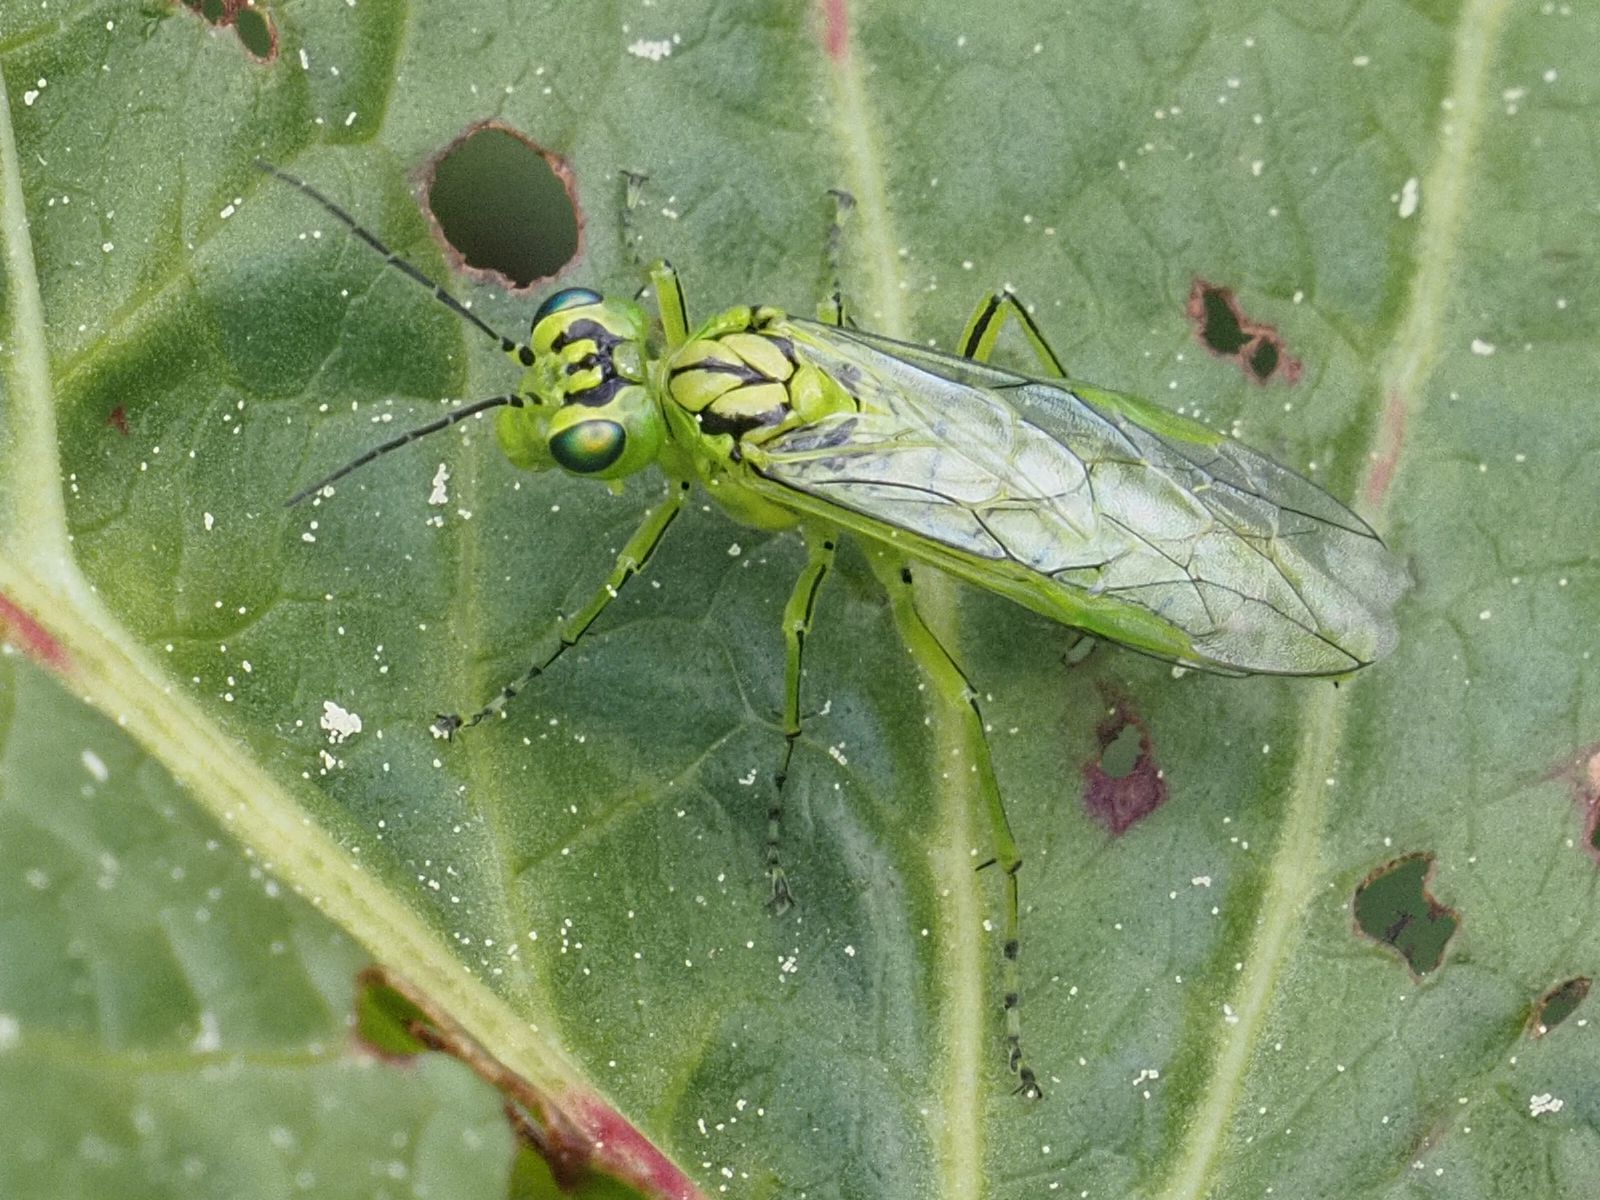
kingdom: Animalia
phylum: Arthropoda
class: Insecta
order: Hymenoptera
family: Tenthredinidae
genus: Rhogogaster
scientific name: Rhogogaster punctulata
